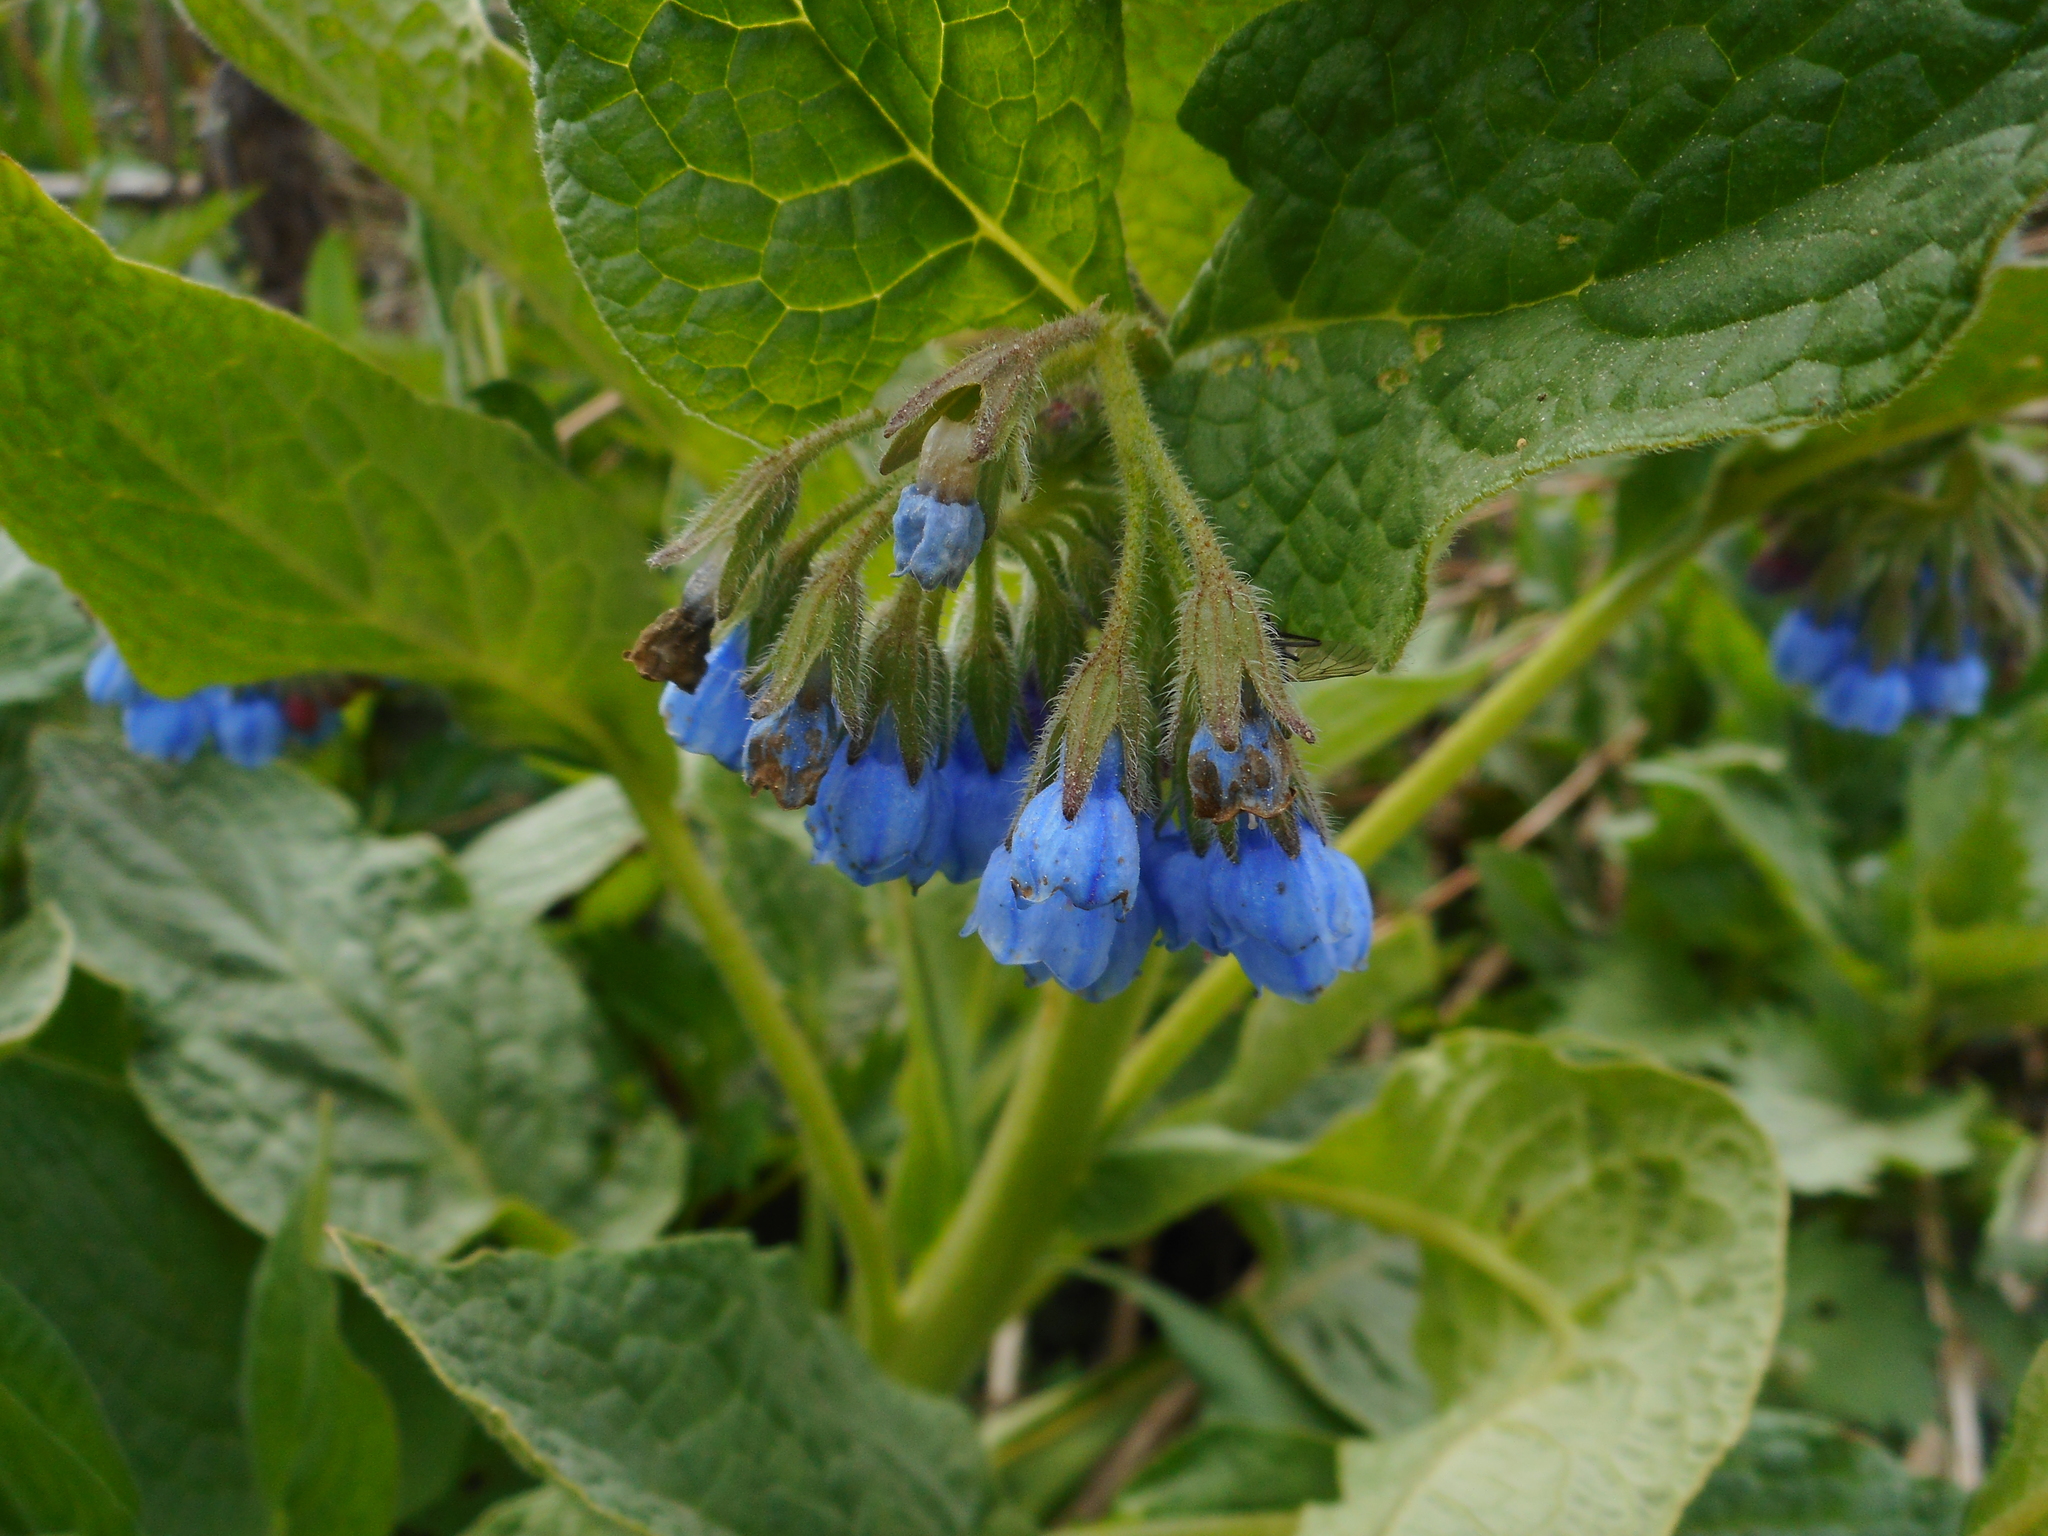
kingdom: Plantae
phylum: Tracheophyta
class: Magnoliopsida
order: Boraginales
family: Boraginaceae
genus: Symphytum
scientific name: Symphytum caucasicum
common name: Caucasian comfrey
